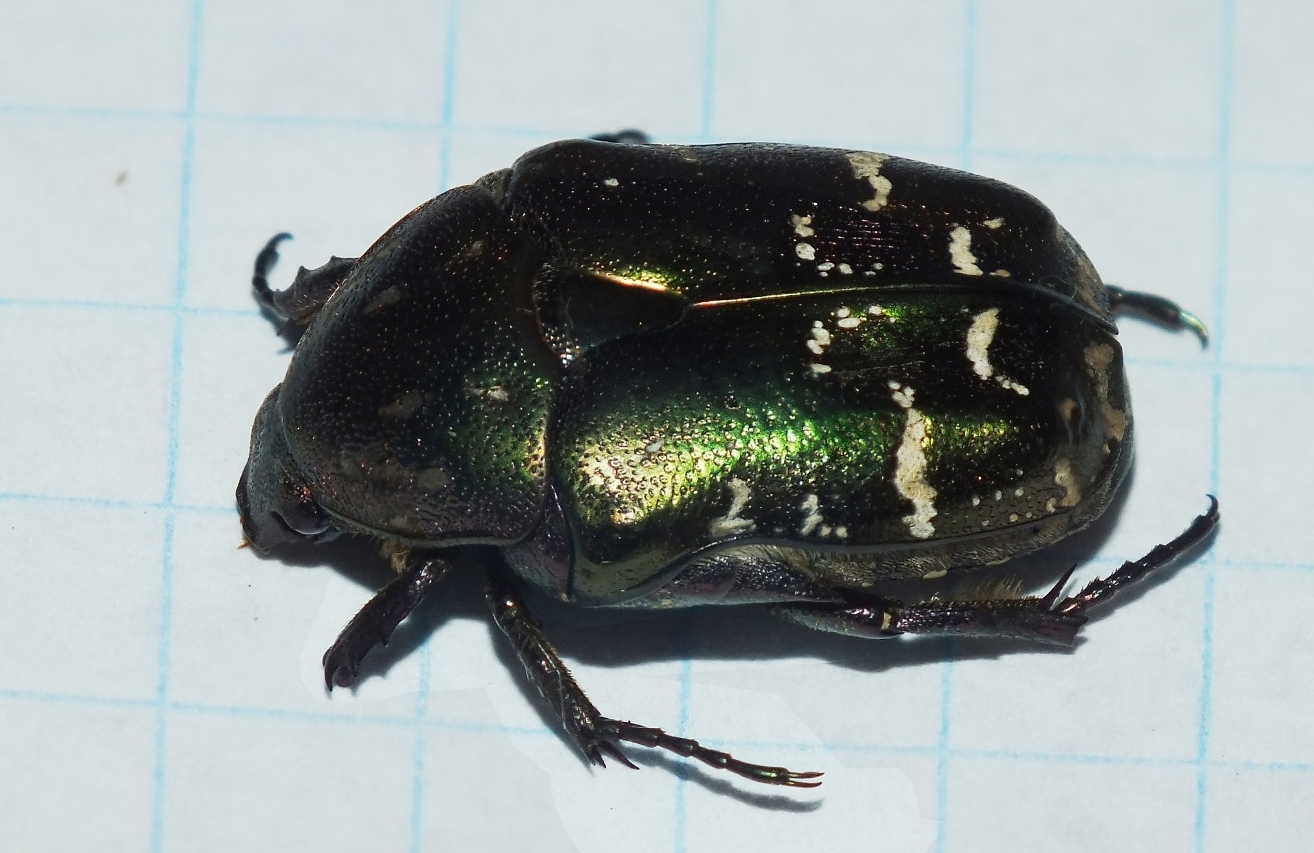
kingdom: Animalia
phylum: Arthropoda
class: Insecta
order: Coleoptera
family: Scarabaeidae
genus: Protaetia
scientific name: Protaetia cuprea
